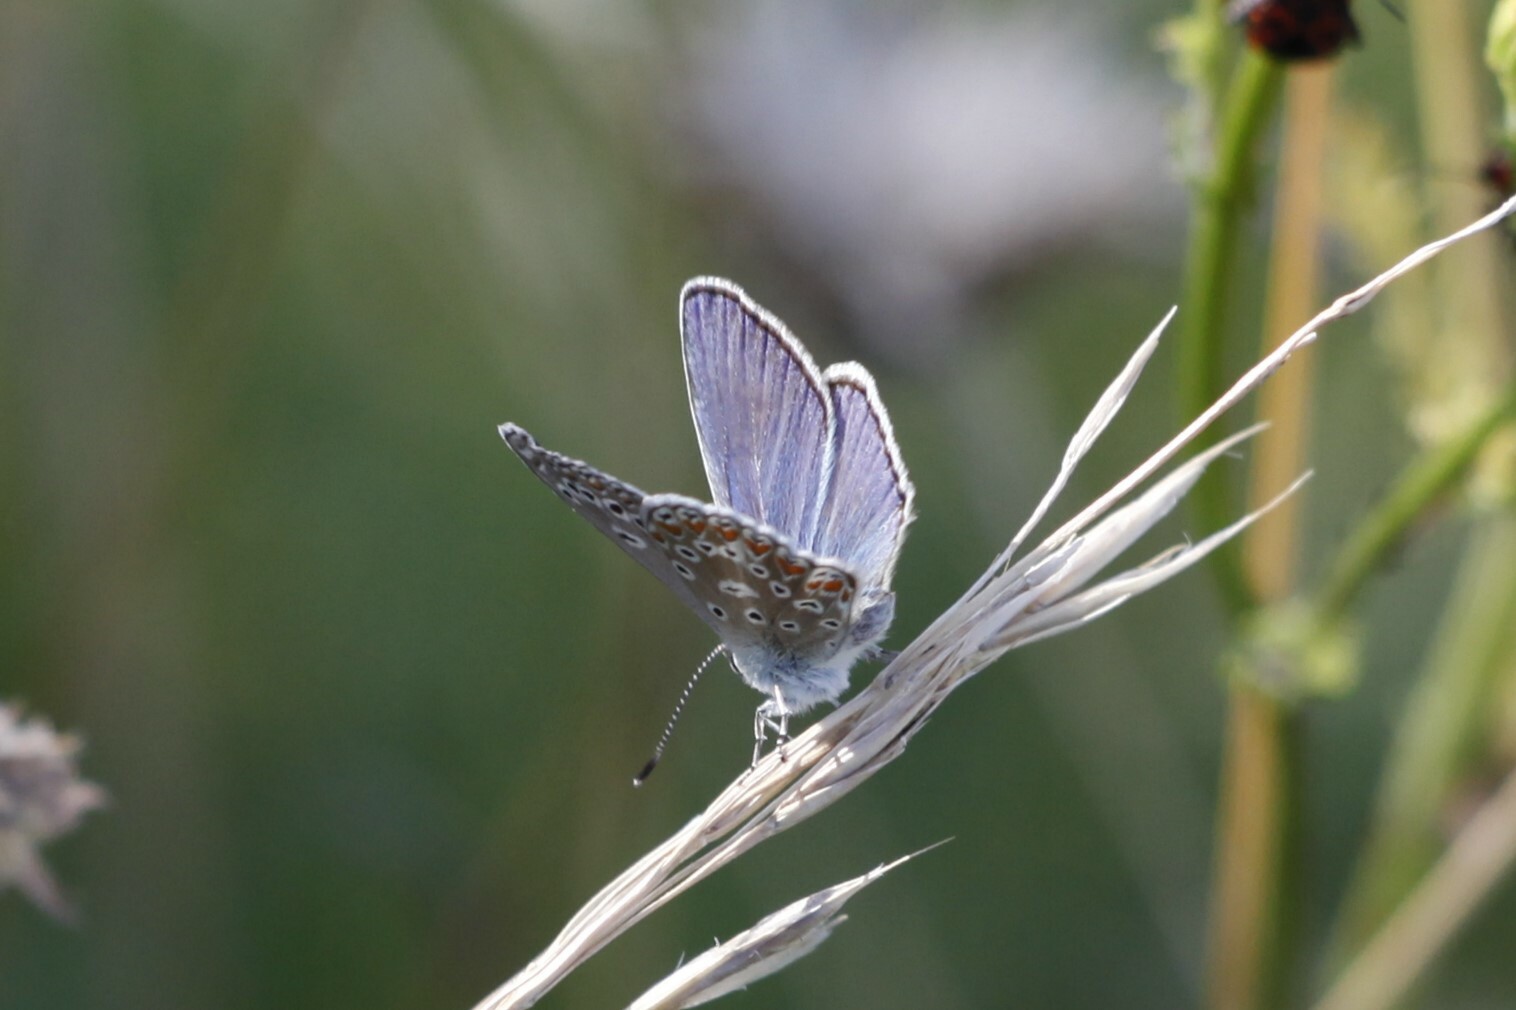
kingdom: Animalia
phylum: Arthropoda
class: Insecta
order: Lepidoptera
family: Lycaenidae
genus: Polyommatus
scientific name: Polyommatus thersites
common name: Chapman's blue
